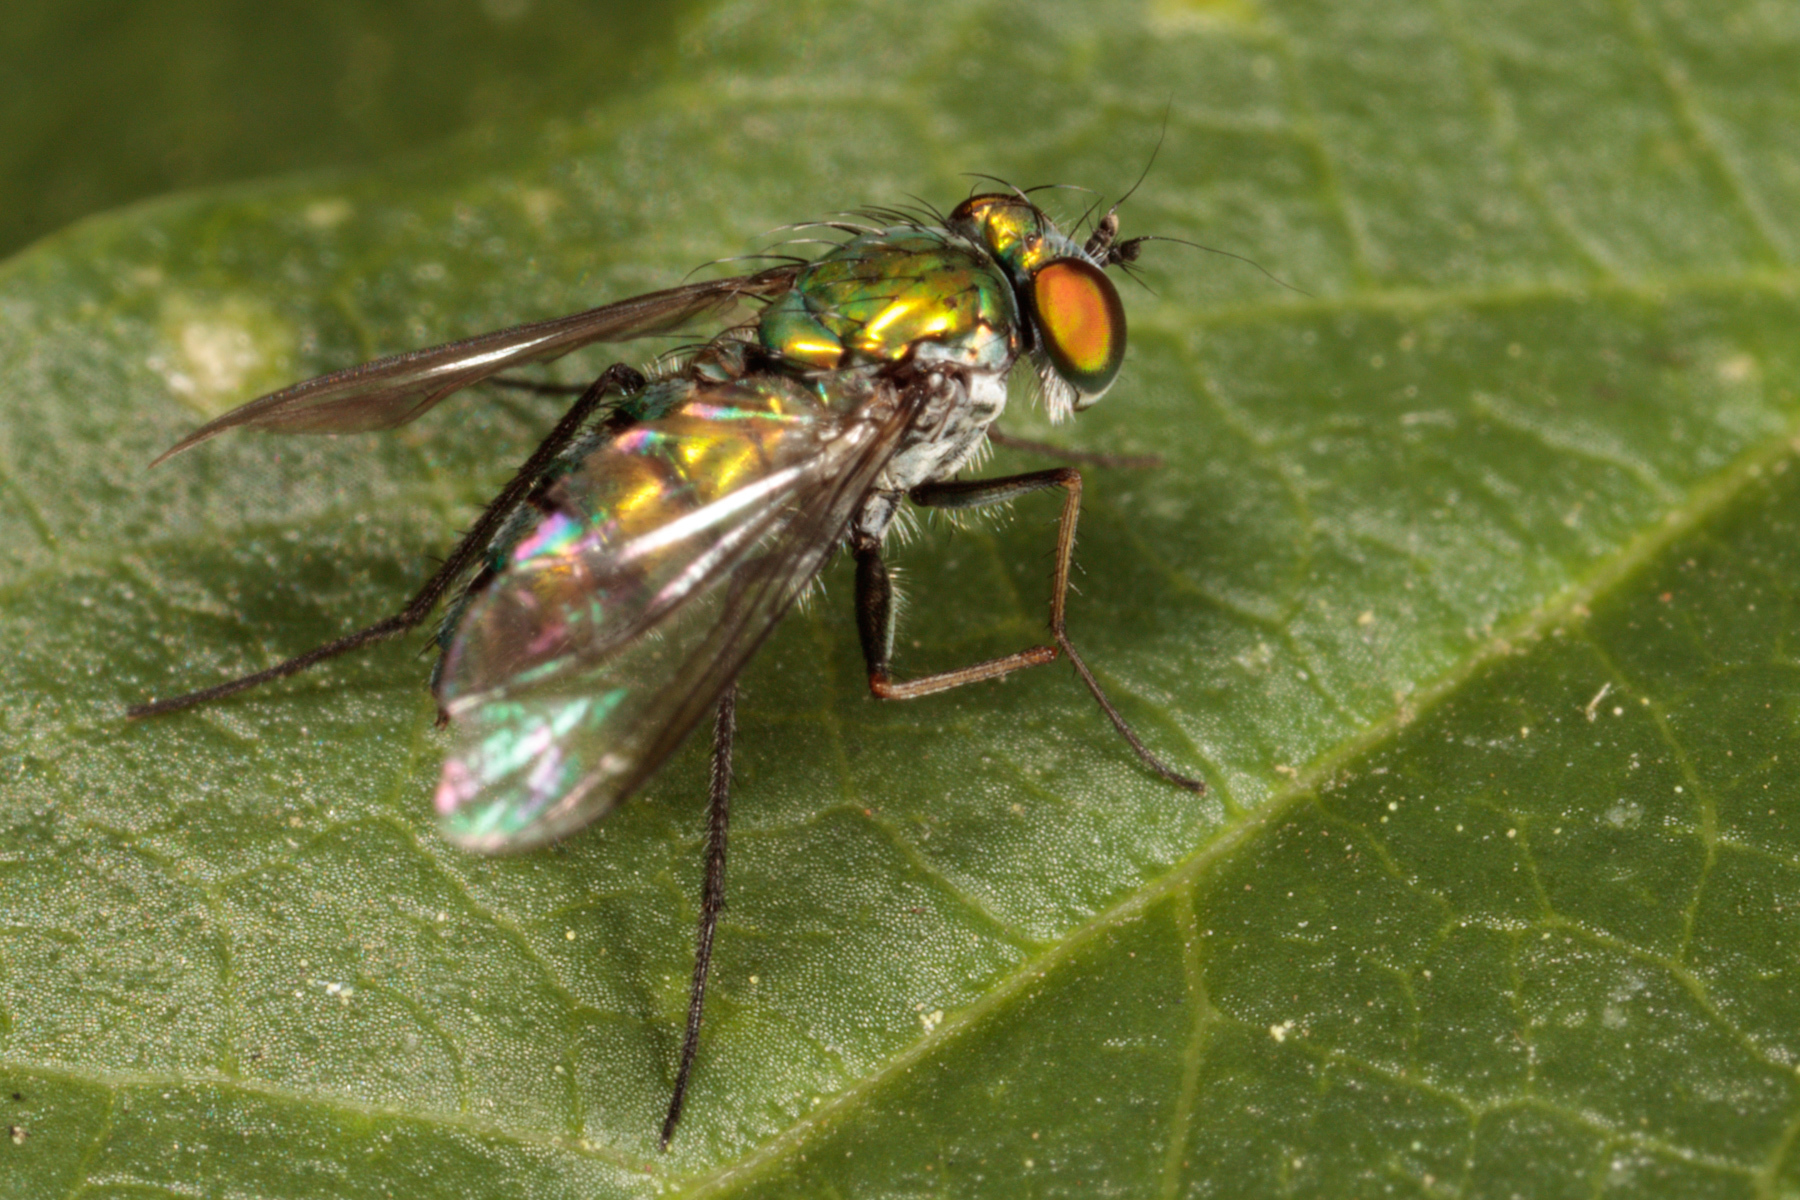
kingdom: Animalia
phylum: Arthropoda
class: Insecta
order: Diptera
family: Dolichopodidae
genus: Condylostylus
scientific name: Condylostylus longicornis
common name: Long-legged fly
